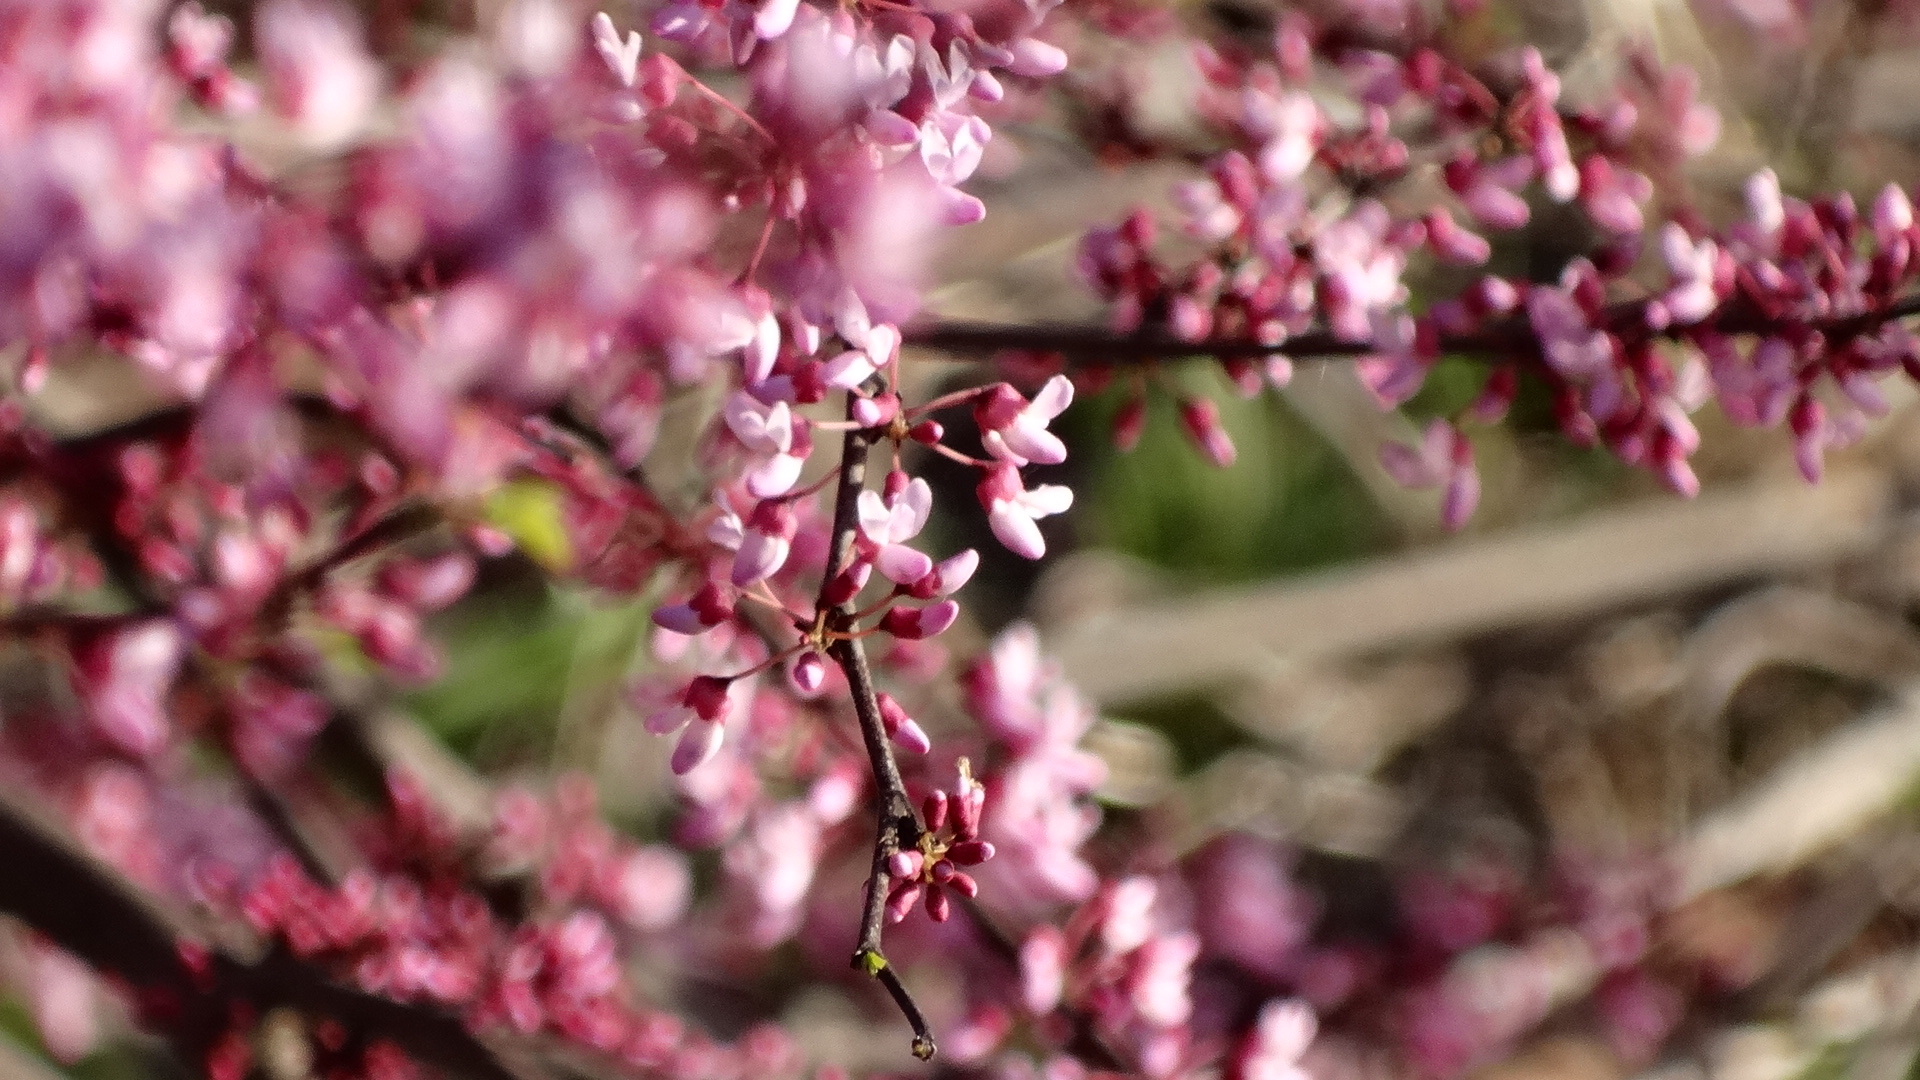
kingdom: Plantae
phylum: Tracheophyta
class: Magnoliopsida
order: Fabales
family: Fabaceae
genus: Cercis
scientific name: Cercis canadensis
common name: Eastern redbud
